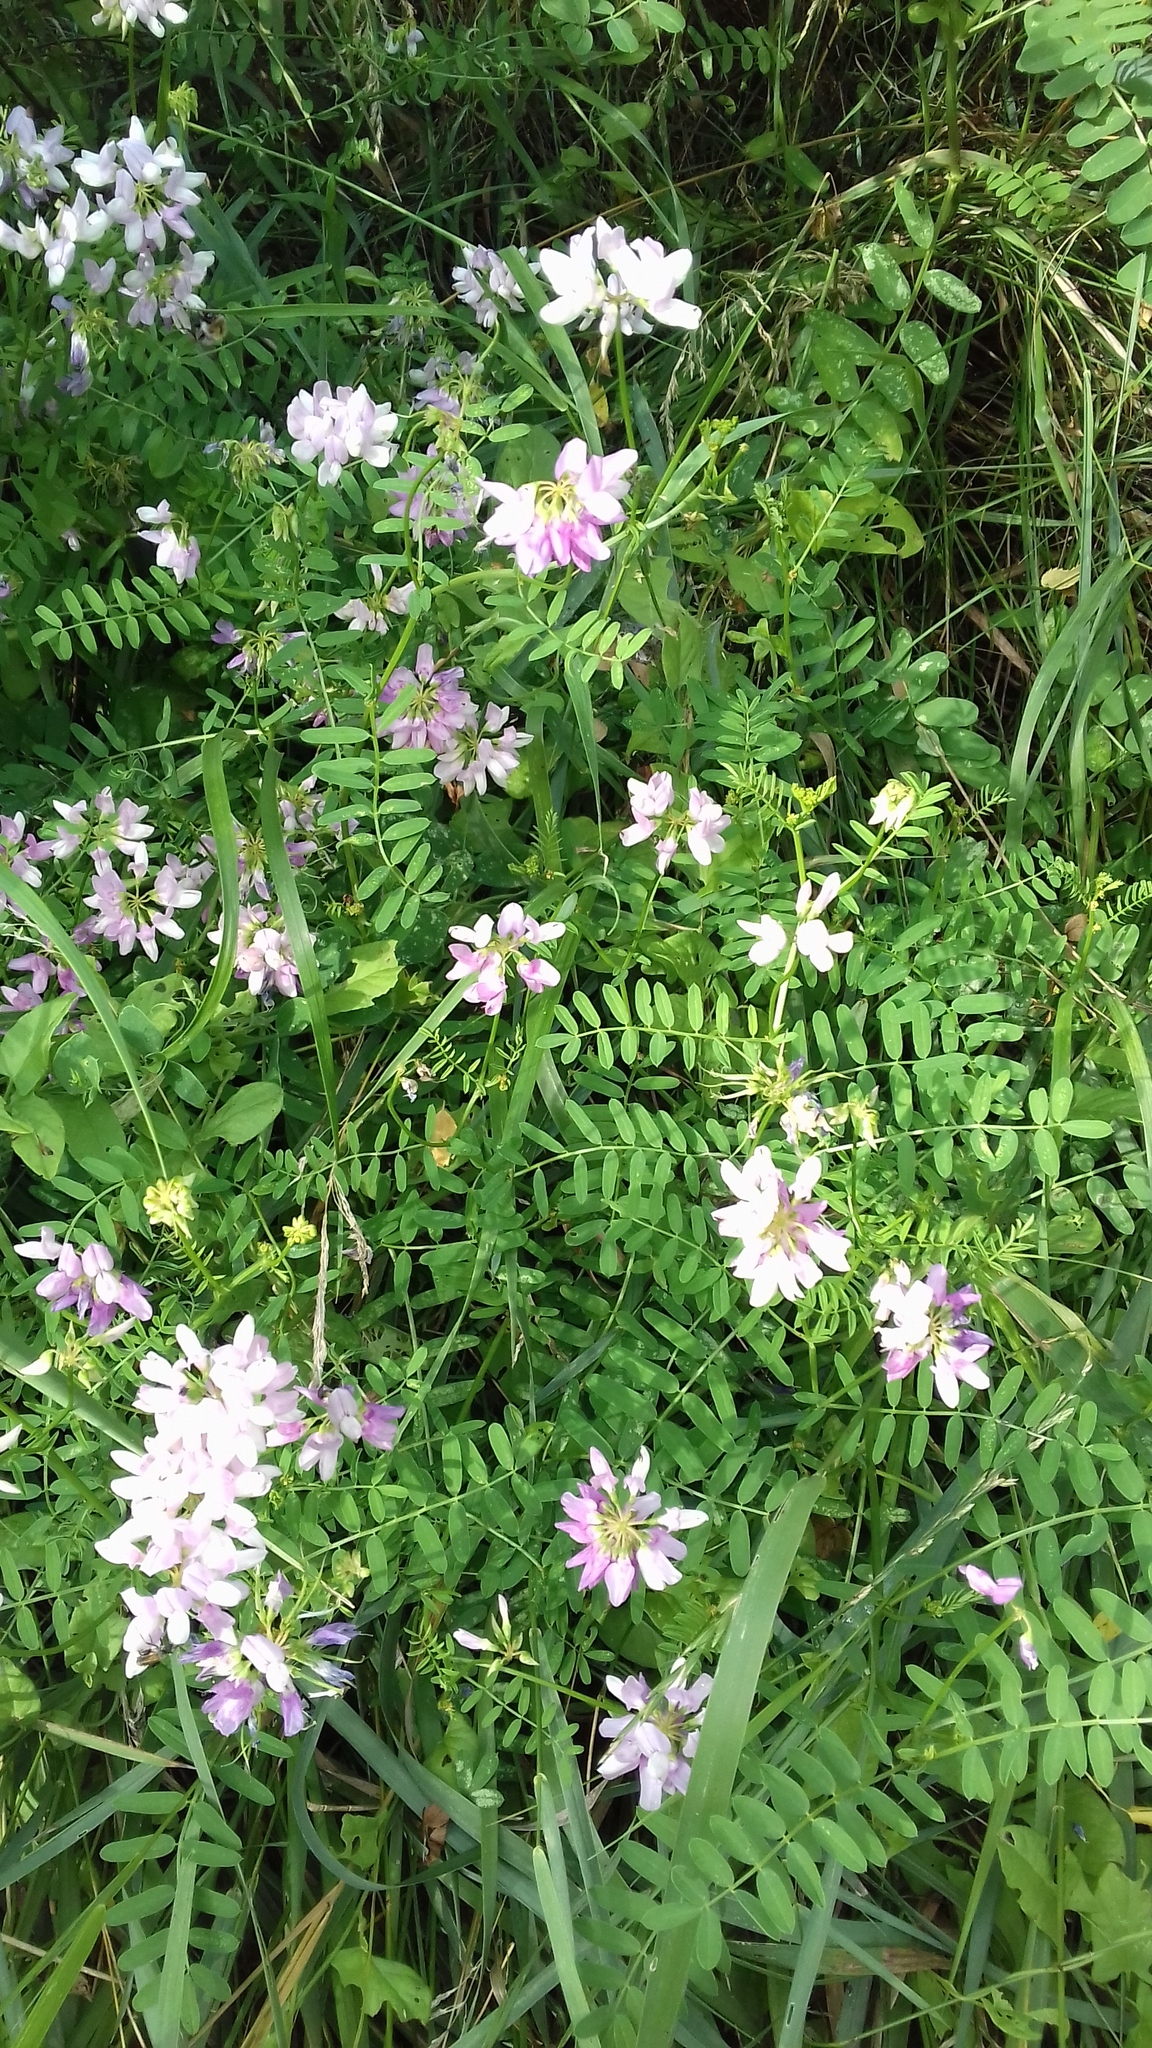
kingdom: Plantae
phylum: Tracheophyta
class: Magnoliopsida
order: Fabales
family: Fabaceae
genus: Coronilla
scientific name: Coronilla varia
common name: Crownvetch
